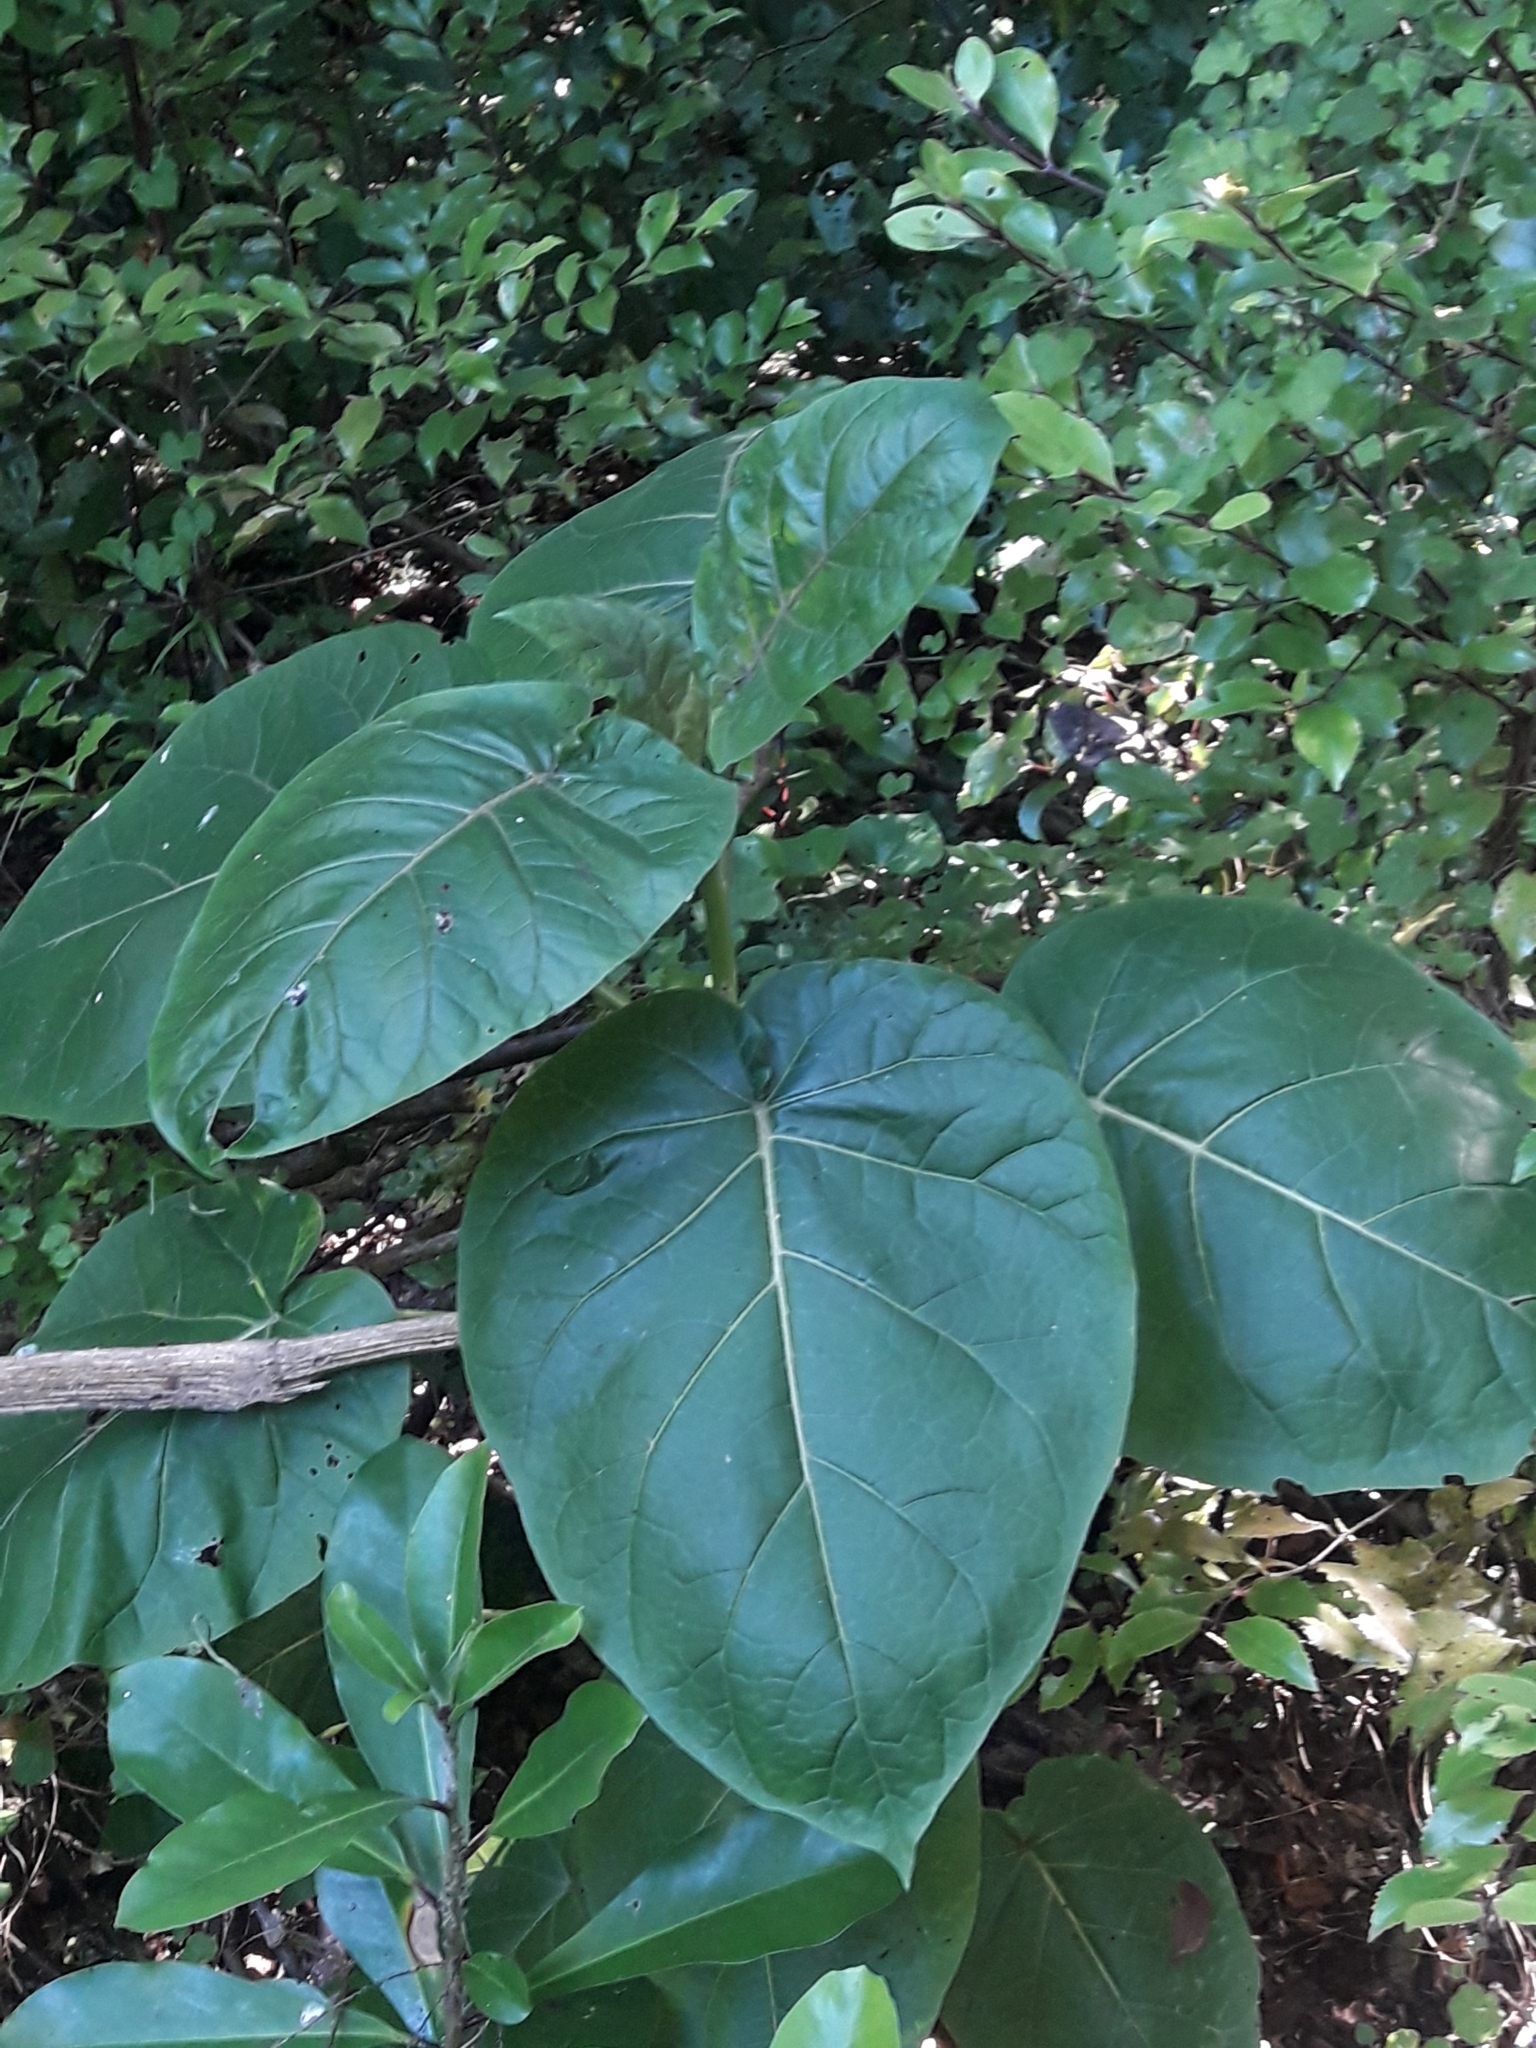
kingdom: Plantae
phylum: Tracheophyta
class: Magnoliopsida
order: Solanales
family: Solanaceae
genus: Solanum
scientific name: Solanum betaceum
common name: Tamarillo
